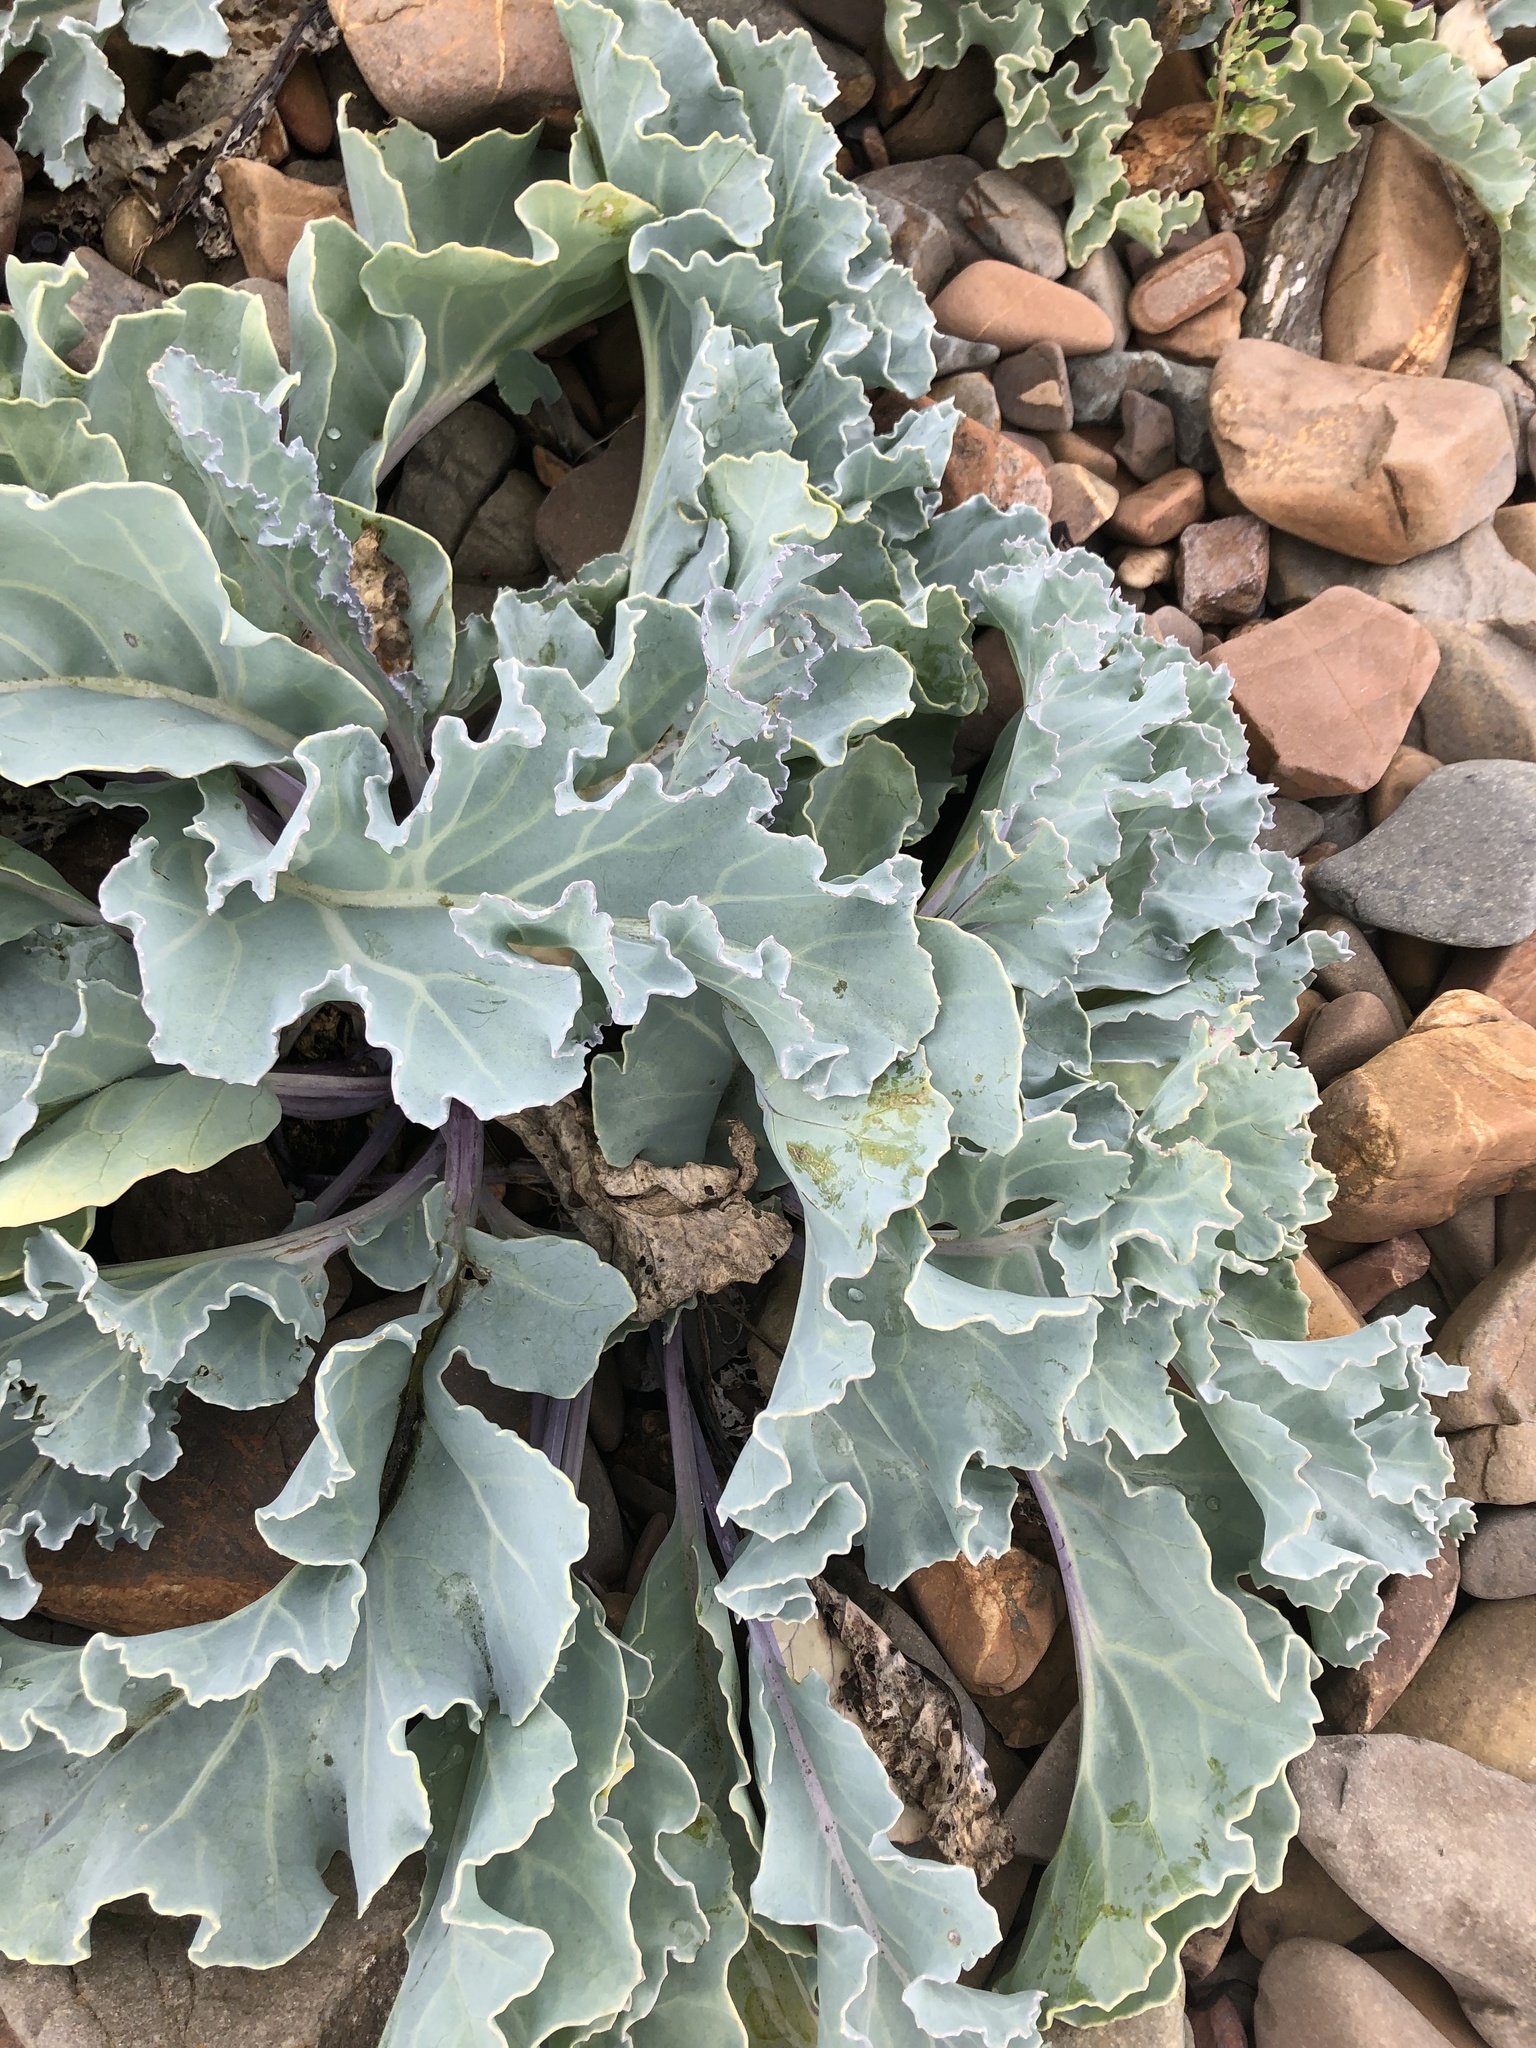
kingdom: Plantae
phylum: Tracheophyta
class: Magnoliopsida
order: Brassicales
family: Brassicaceae
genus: Crambe
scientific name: Crambe maritima
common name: Sea-kale
